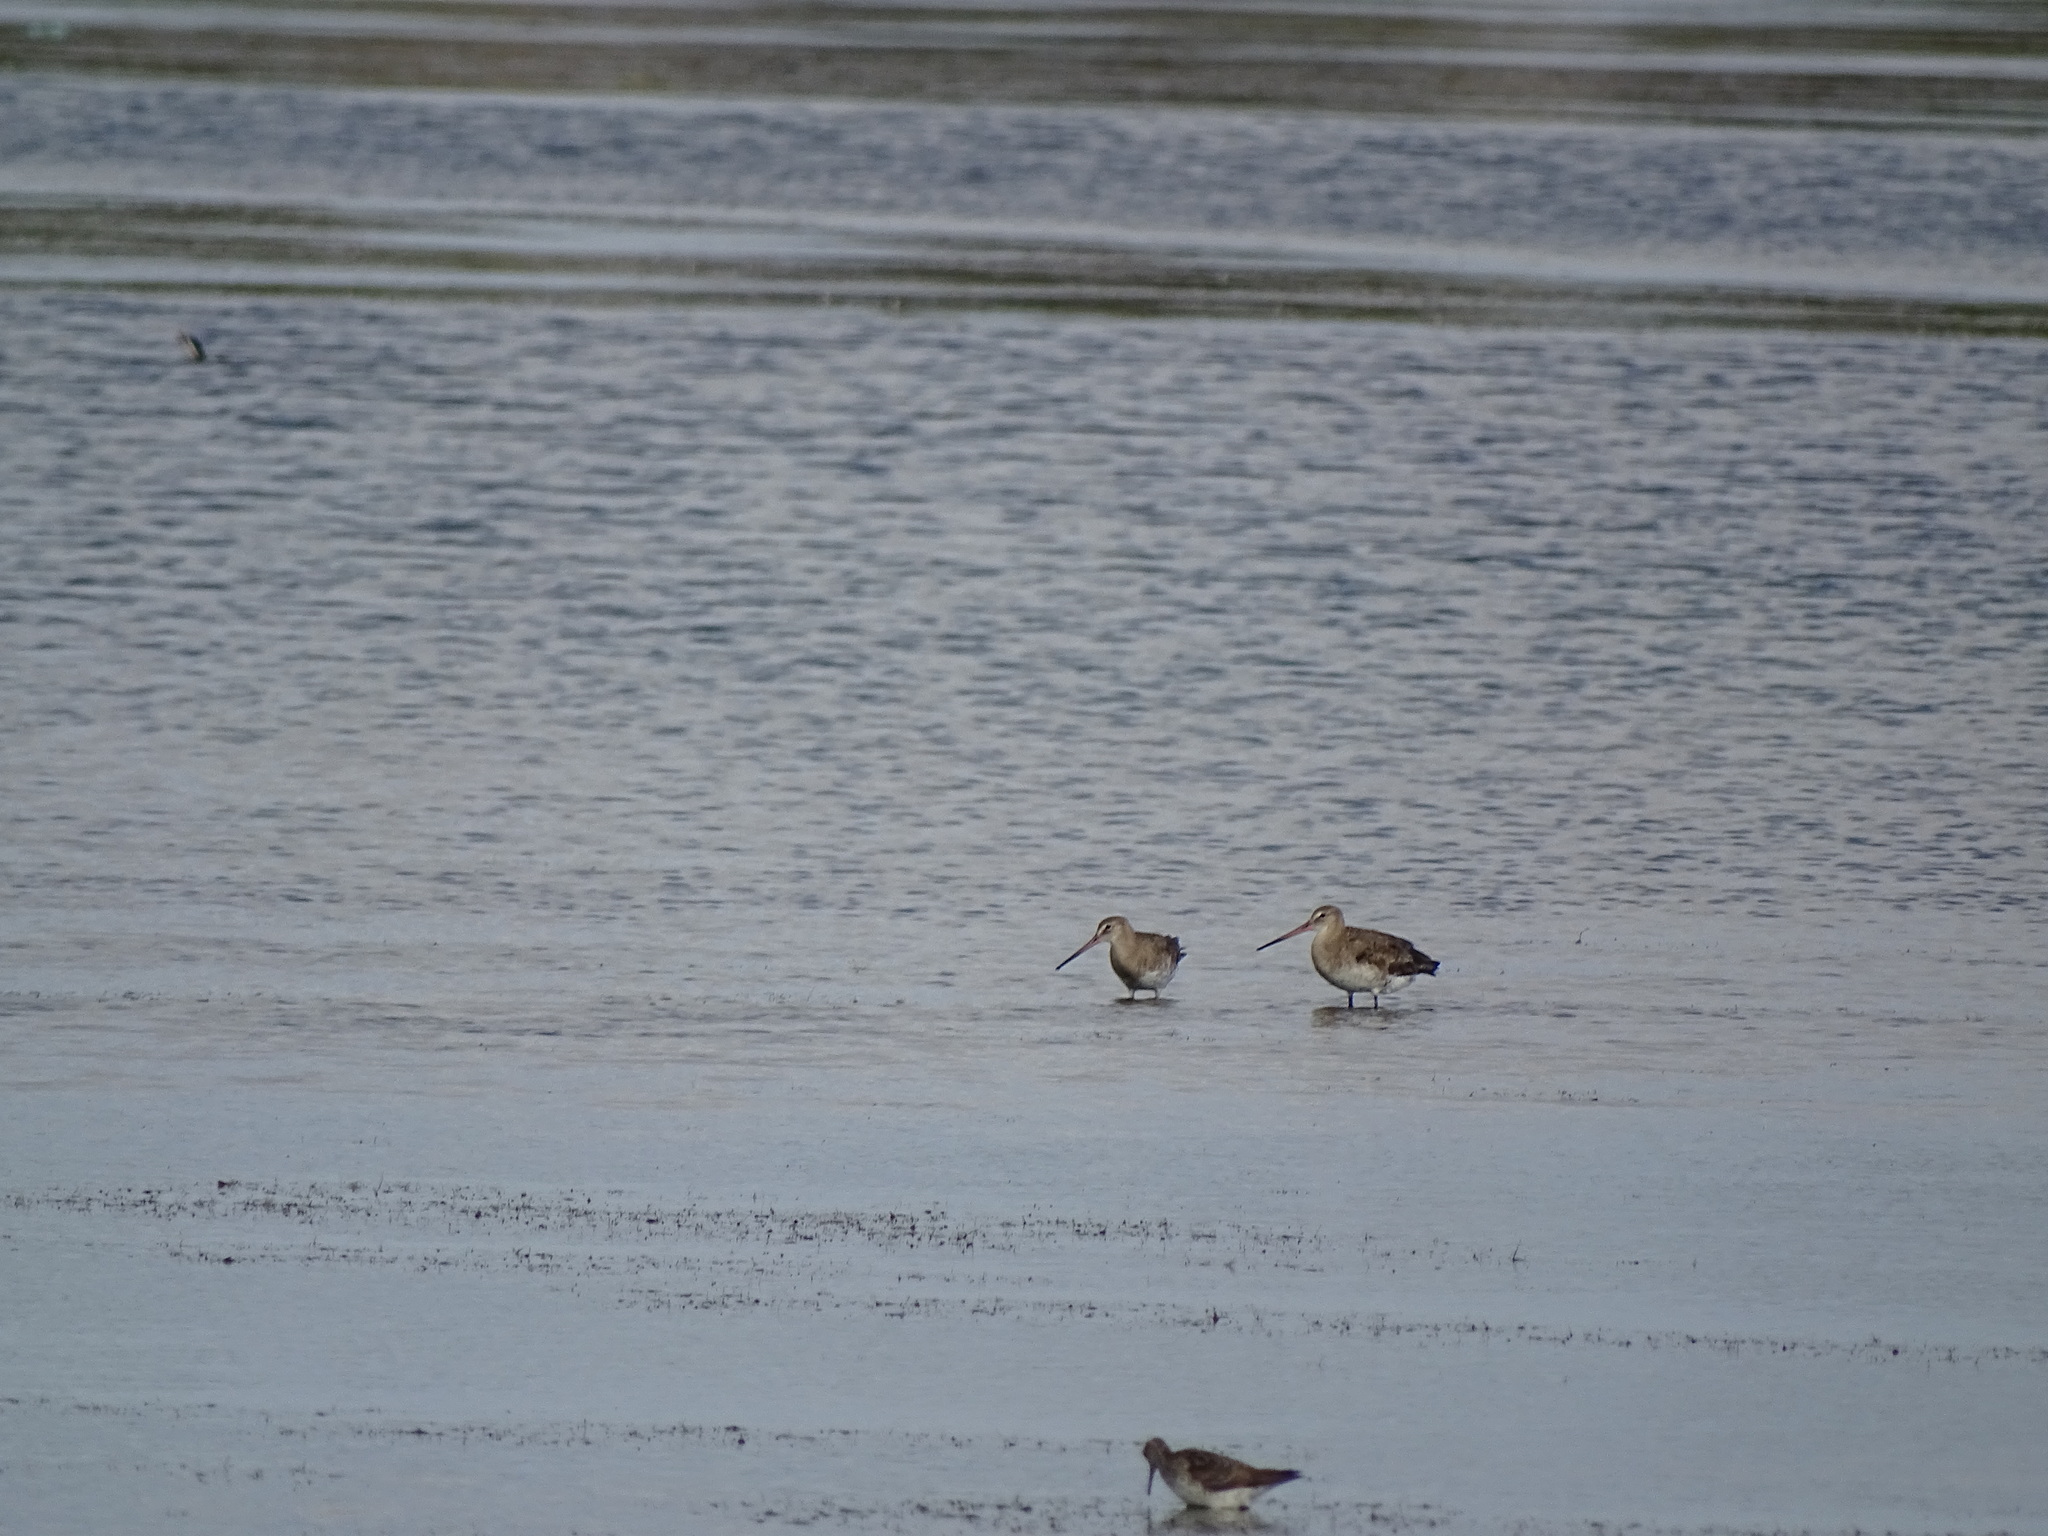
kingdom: Animalia
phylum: Chordata
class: Aves
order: Charadriiformes
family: Scolopacidae
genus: Limosa
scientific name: Limosa limosa
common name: Black-tailed godwit
